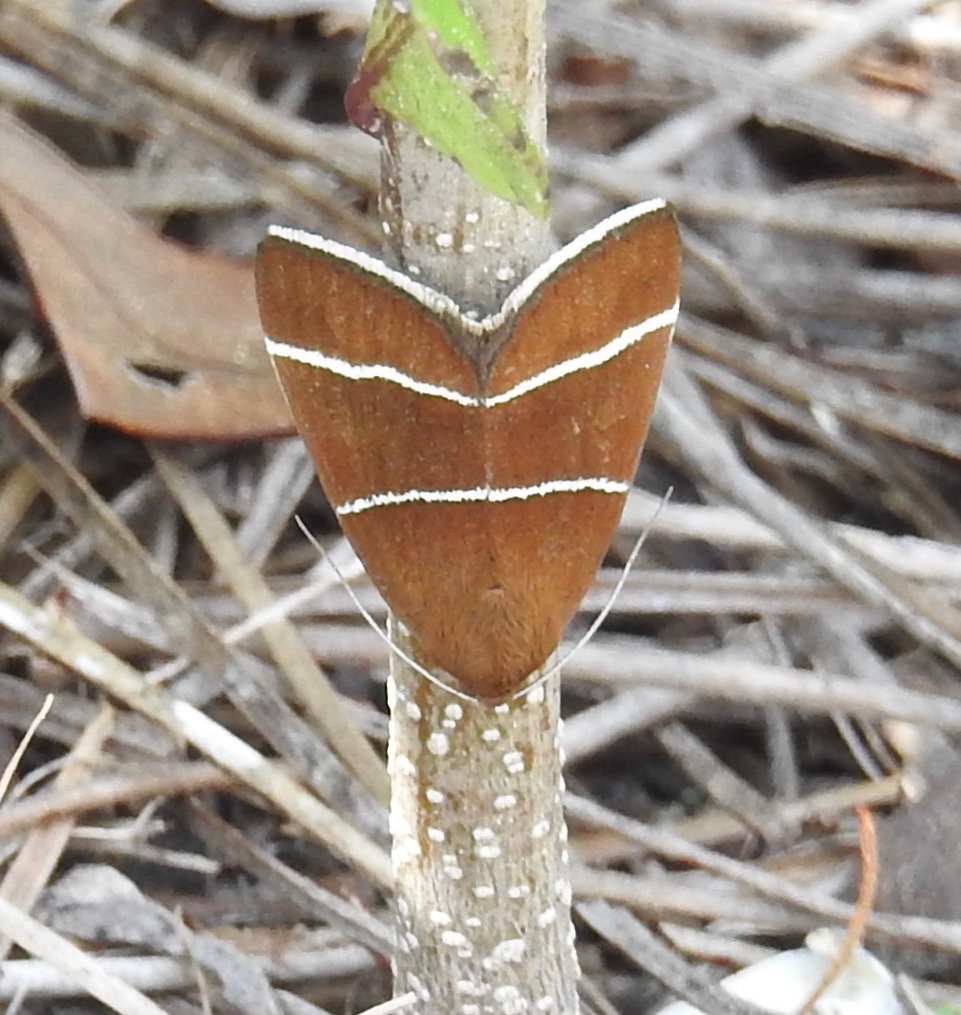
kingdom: Animalia
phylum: Arthropoda
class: Insecta
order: Lepidoptera
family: Erebidae
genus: Argyrostrotis
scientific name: Argyrostrotis quadrifilaris
